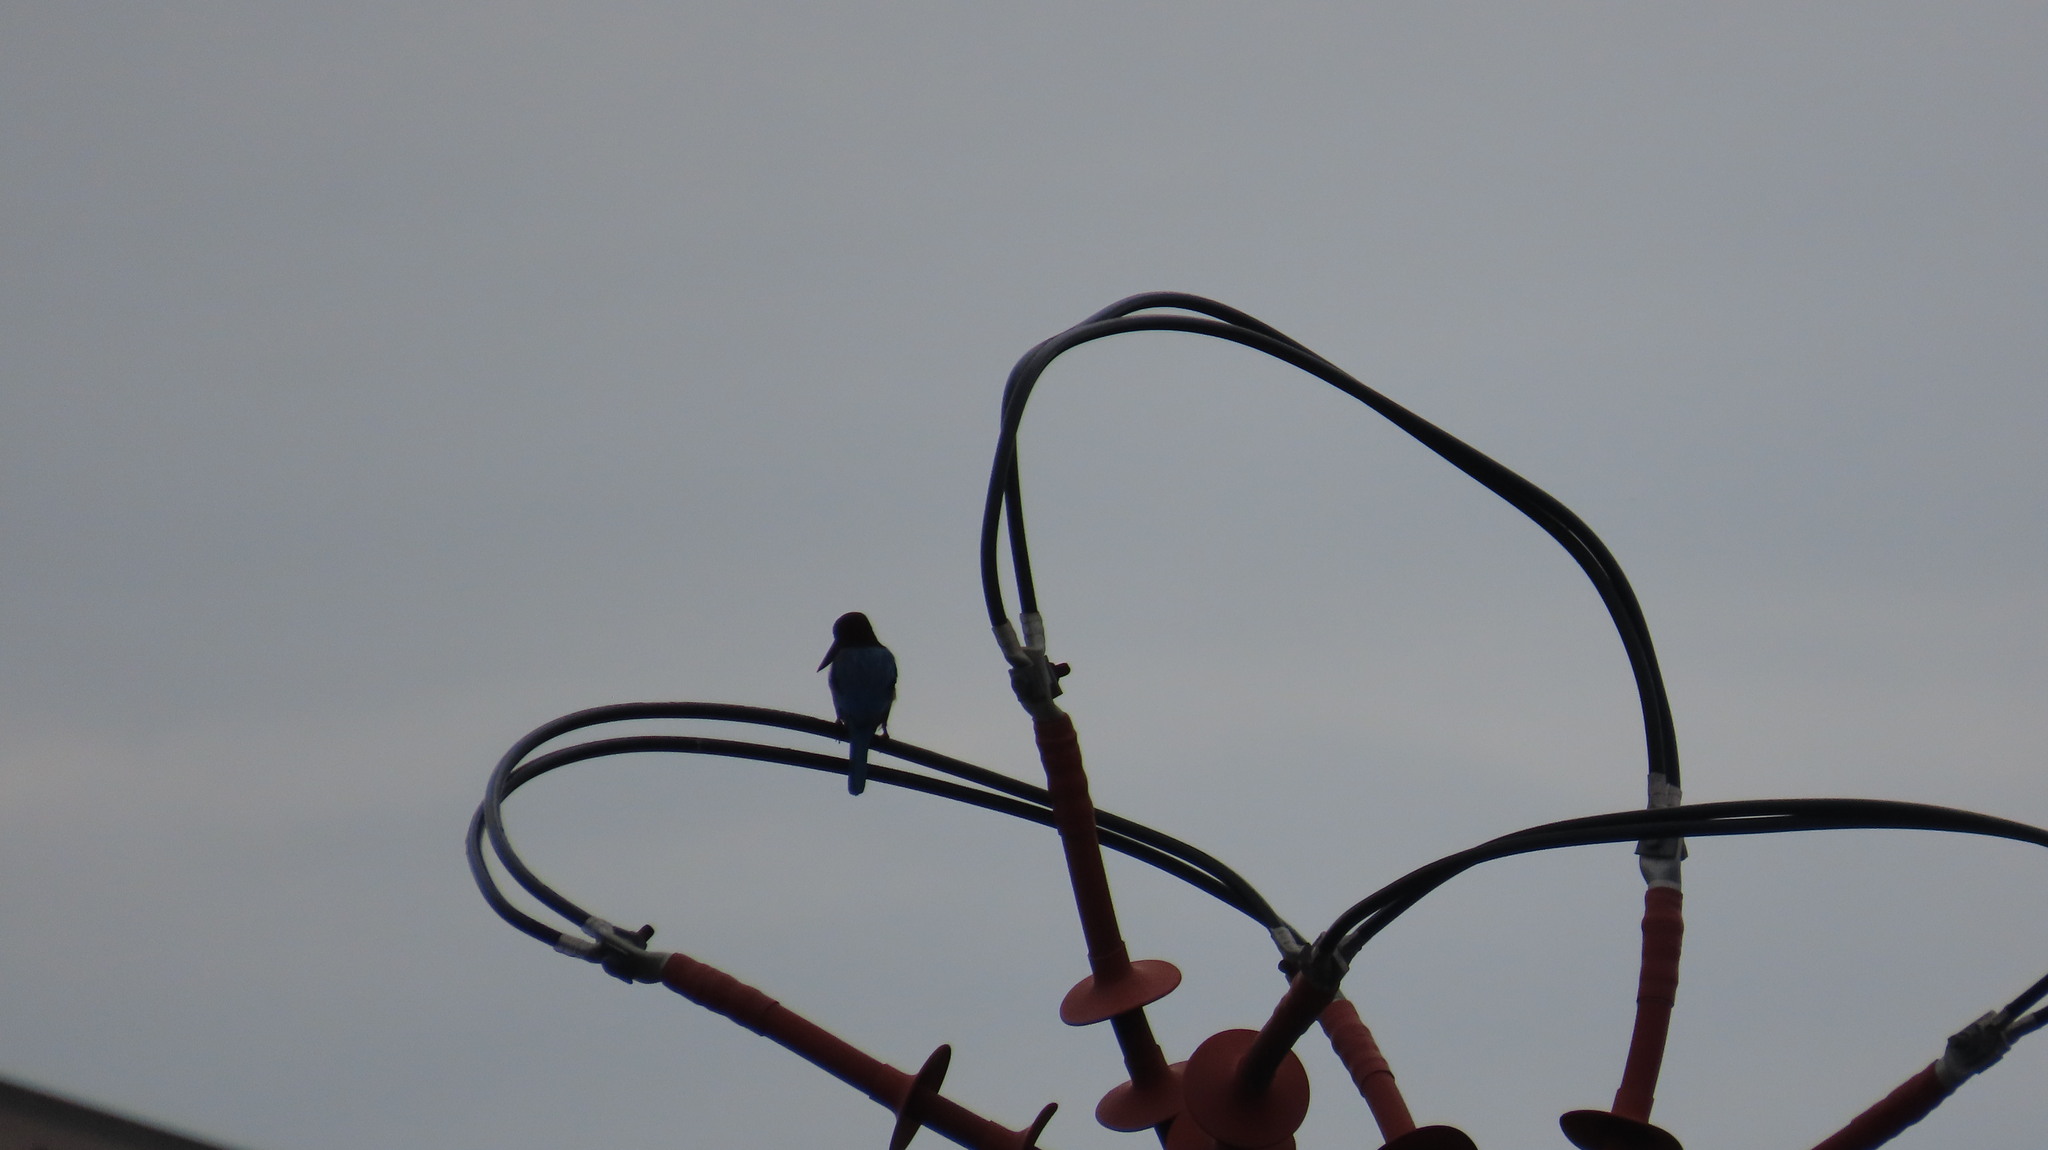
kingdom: Animalia
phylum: Chordata
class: Aves
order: Coraciiformes
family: Alcedinidae
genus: Halcyon
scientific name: Halcyon smyrnensis
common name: White-throated kingfisher
